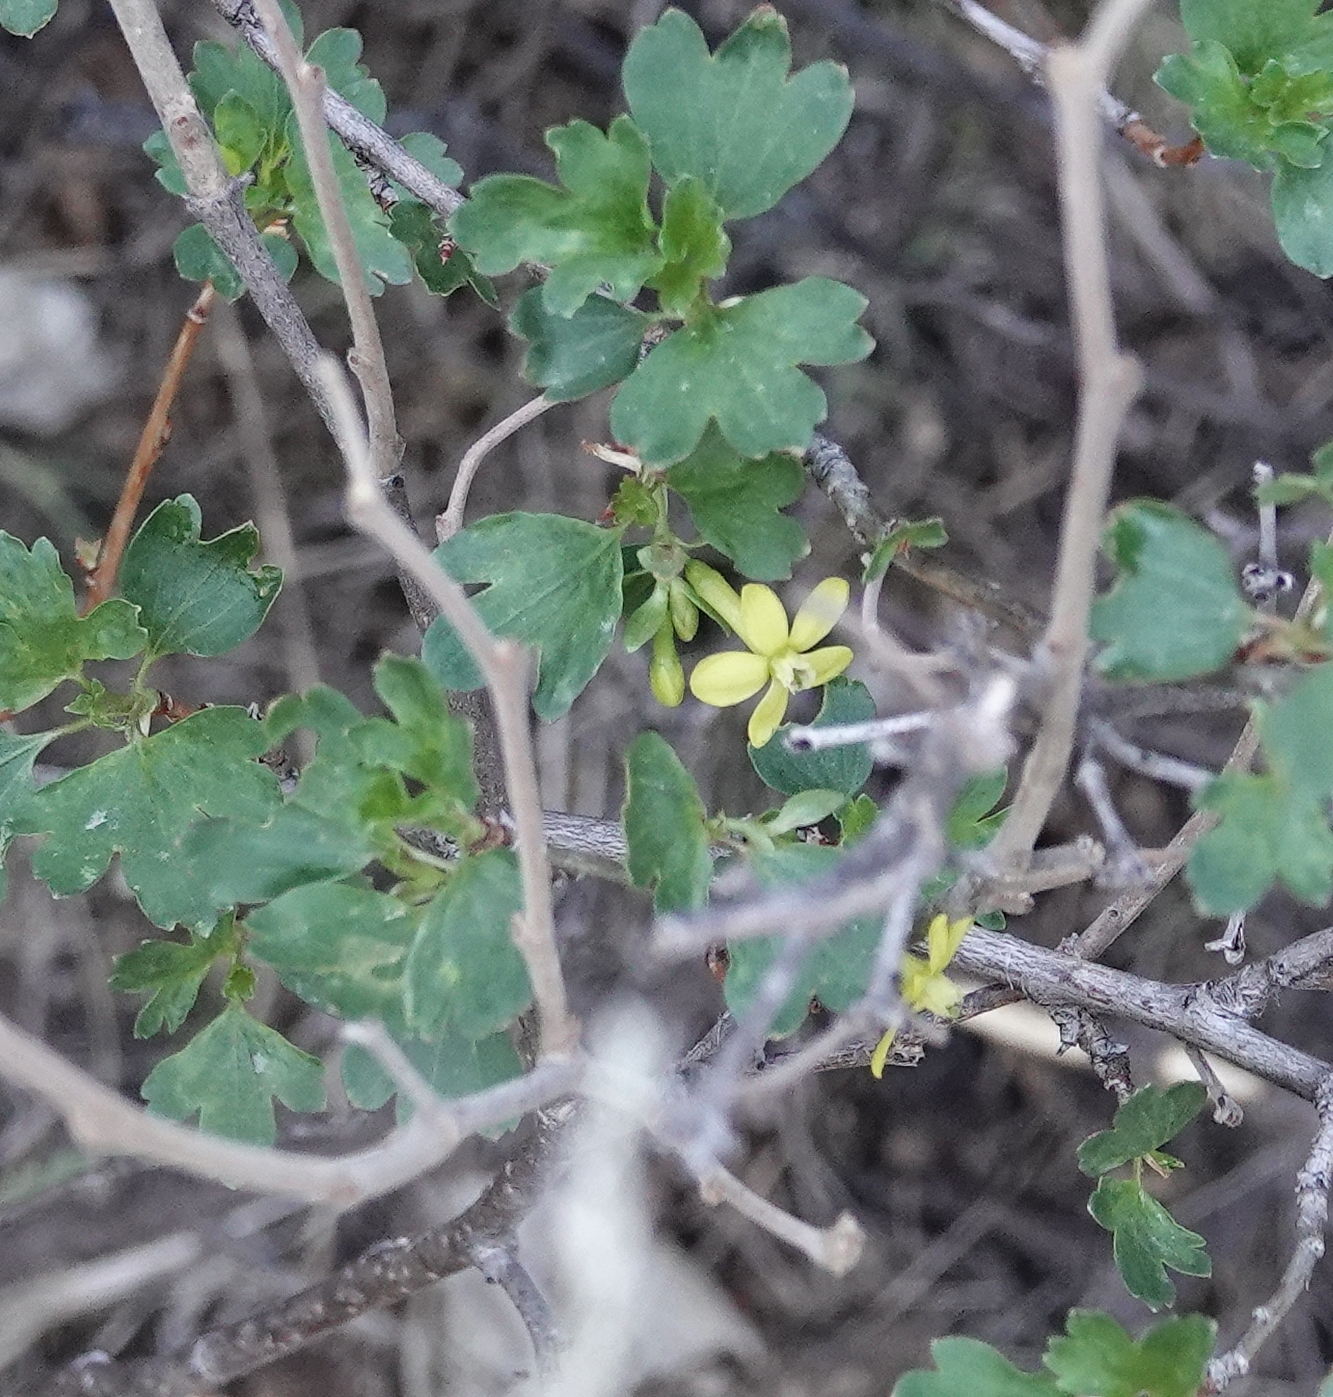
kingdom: Plantae
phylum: Tracheophyta
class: Magnoliopsida
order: Saxifragales
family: Grossulariaceae
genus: Ribes
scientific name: Ribes aureum
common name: Golden currant
